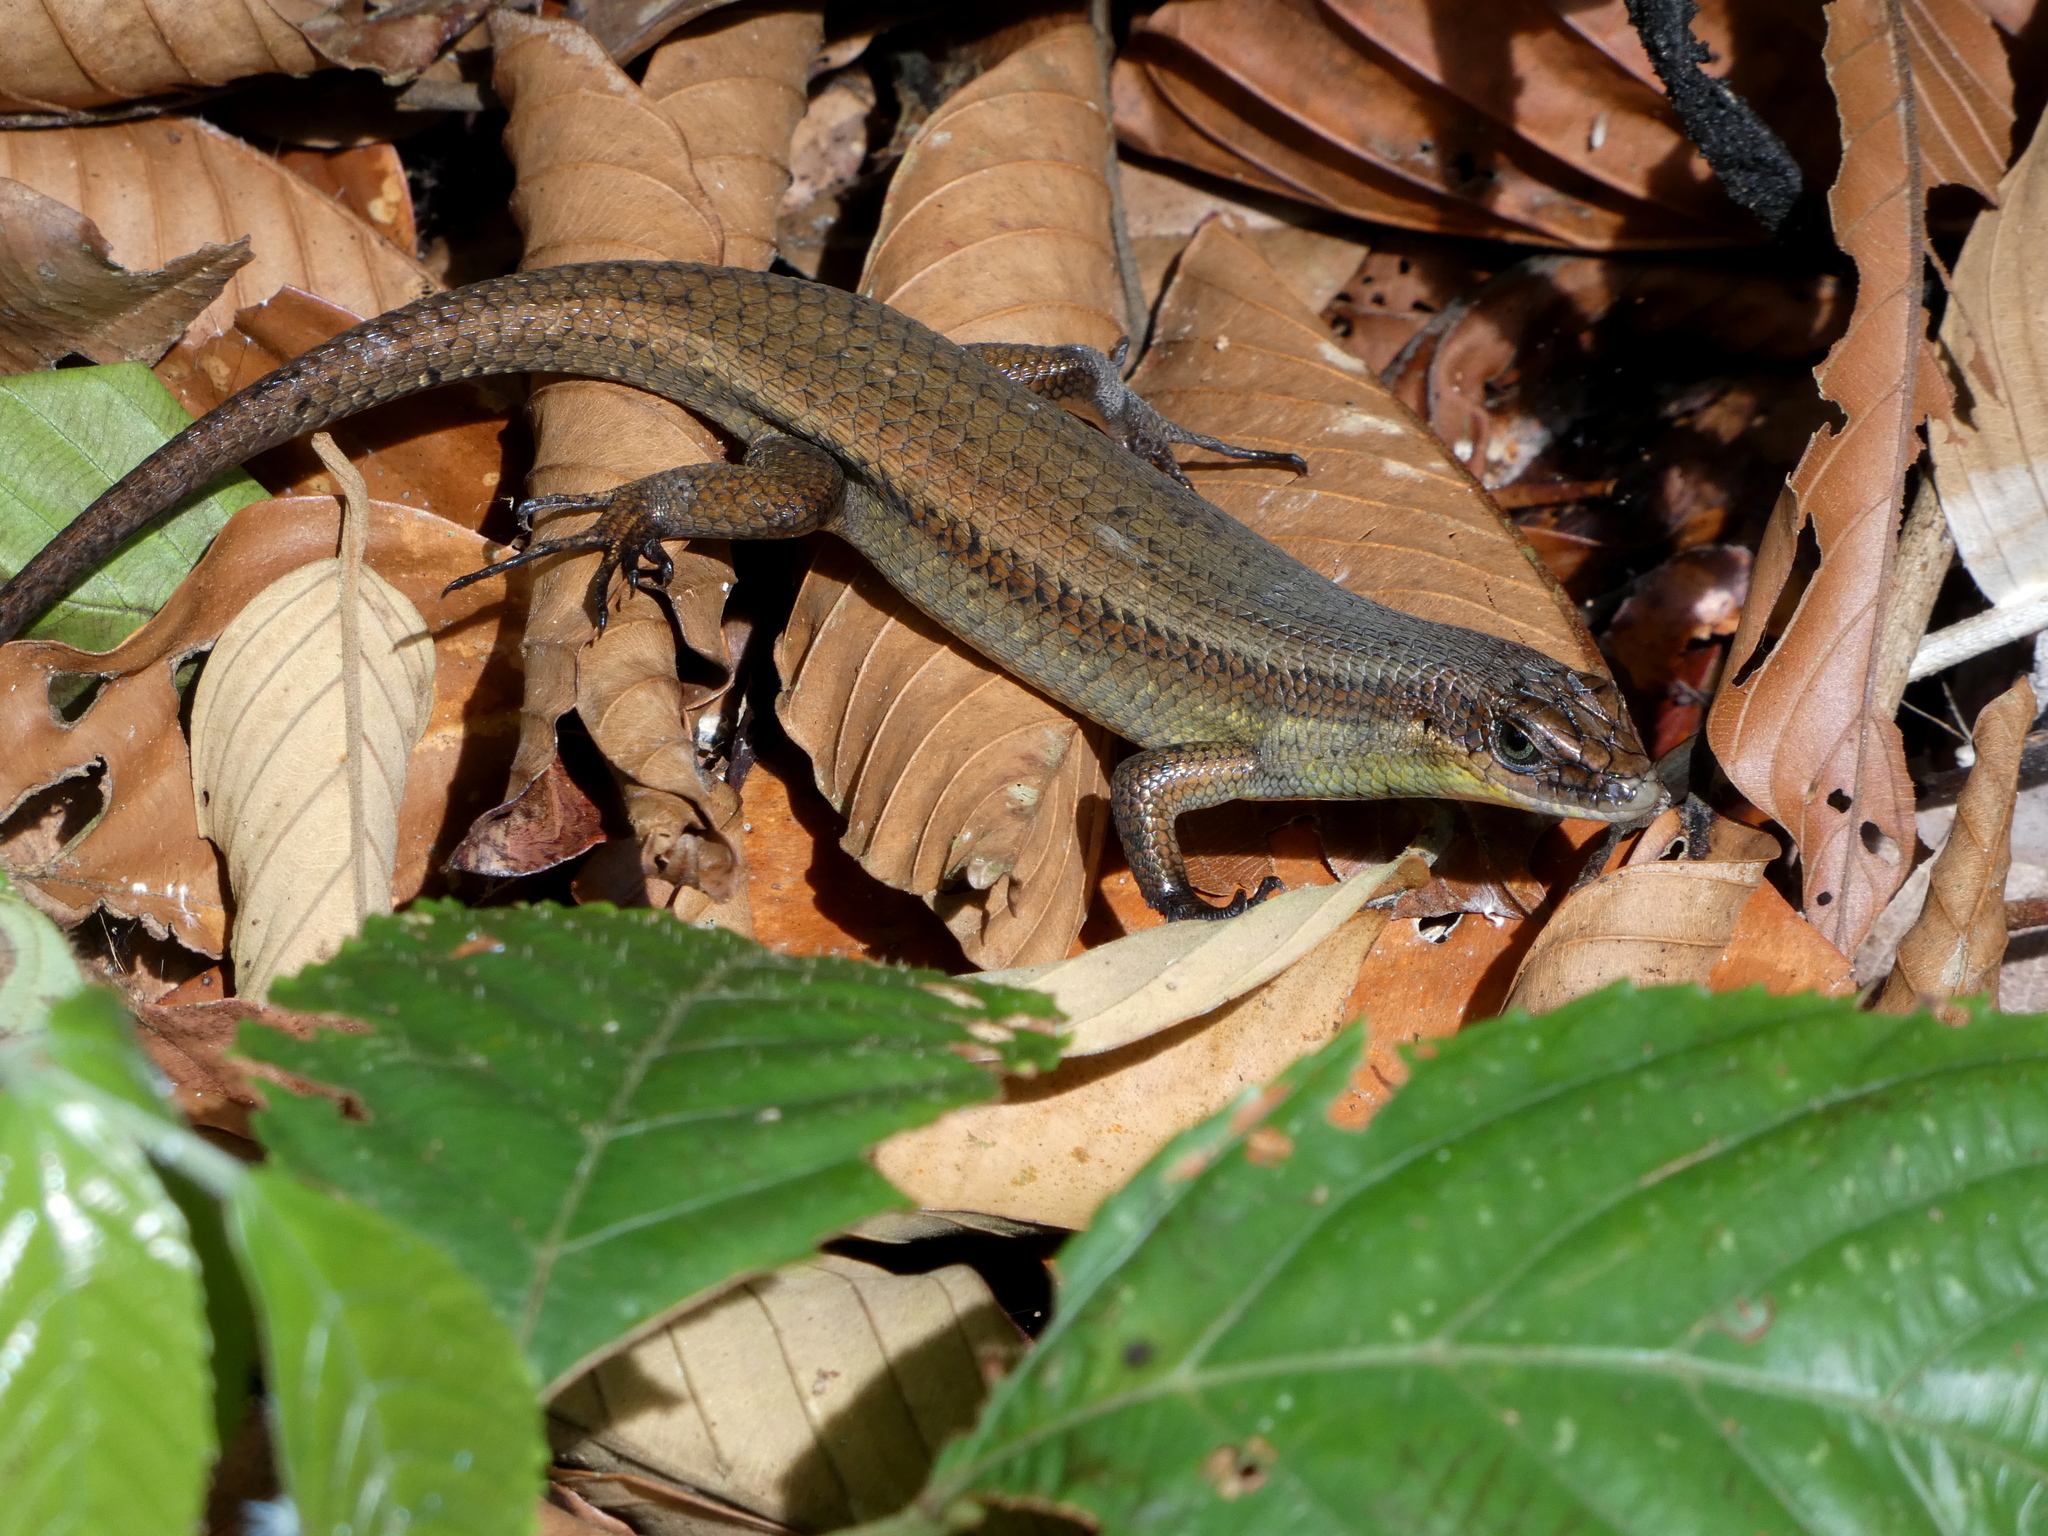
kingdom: Animalia
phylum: Chordata
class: Squamata
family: Scincidae
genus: Eutropis
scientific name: Eutropis lewisi
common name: Lewis’ mabuya
